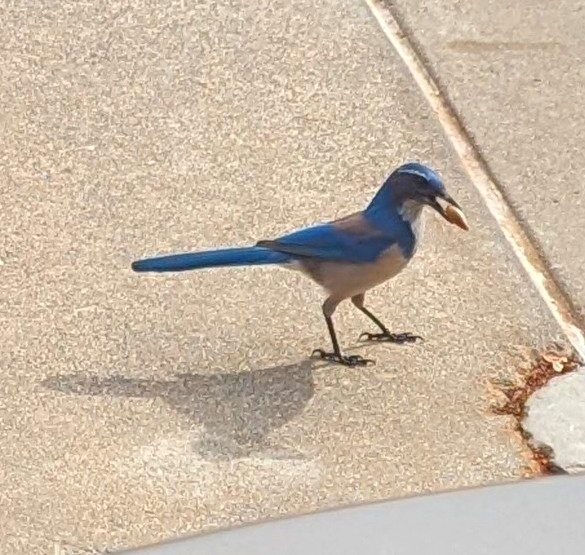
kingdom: Animalia
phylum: Chordata
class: Aves
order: Passeriformes
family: Corvidae
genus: Aphelocoma
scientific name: Aphelocoma californica
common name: California scrub-jay
